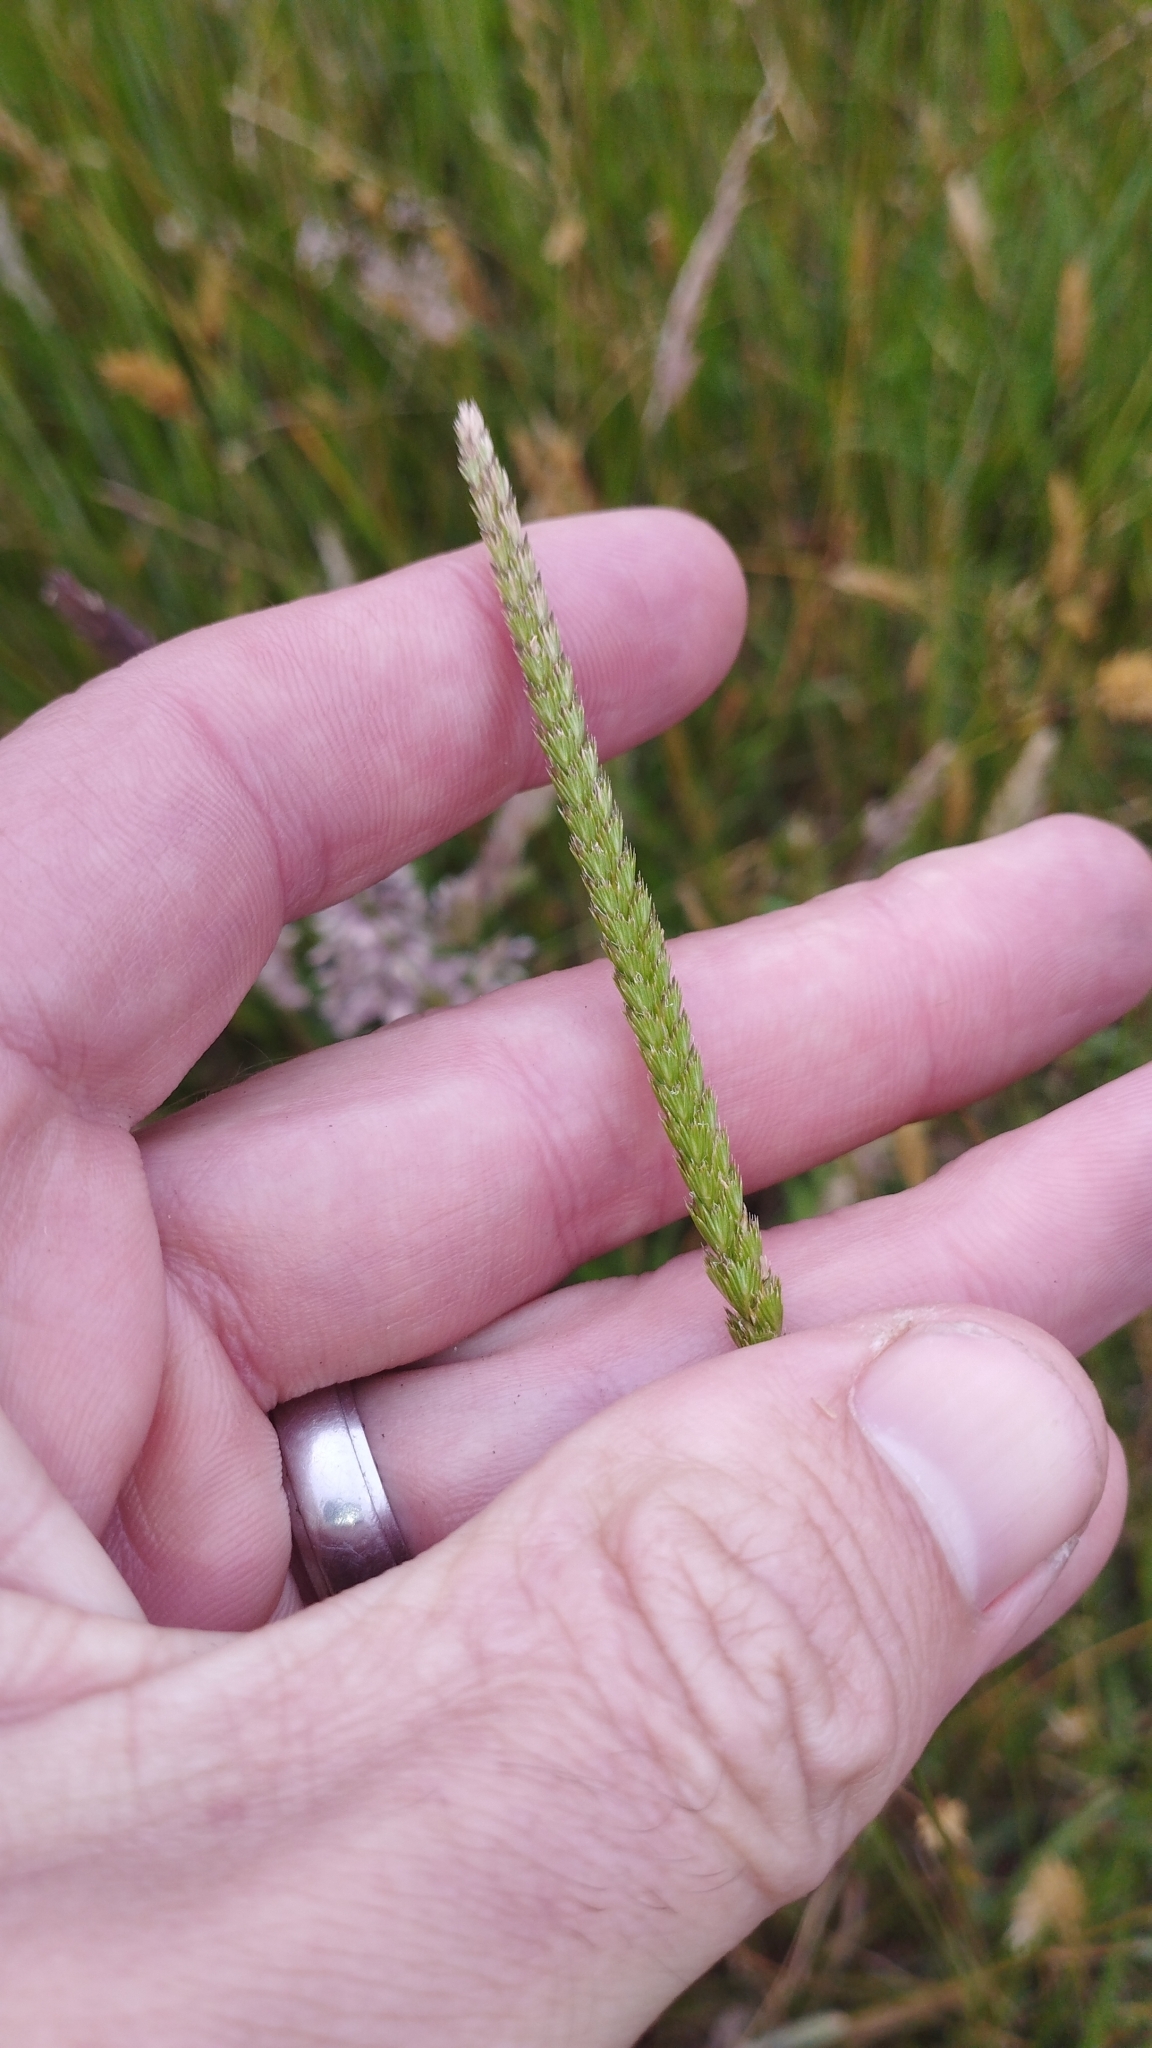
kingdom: Plantae
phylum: Tracheophyta
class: Liliopsida
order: Poales
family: Poaceae
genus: Cynosurus
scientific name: Cynosurus cristatus
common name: Crested dog's-tail
